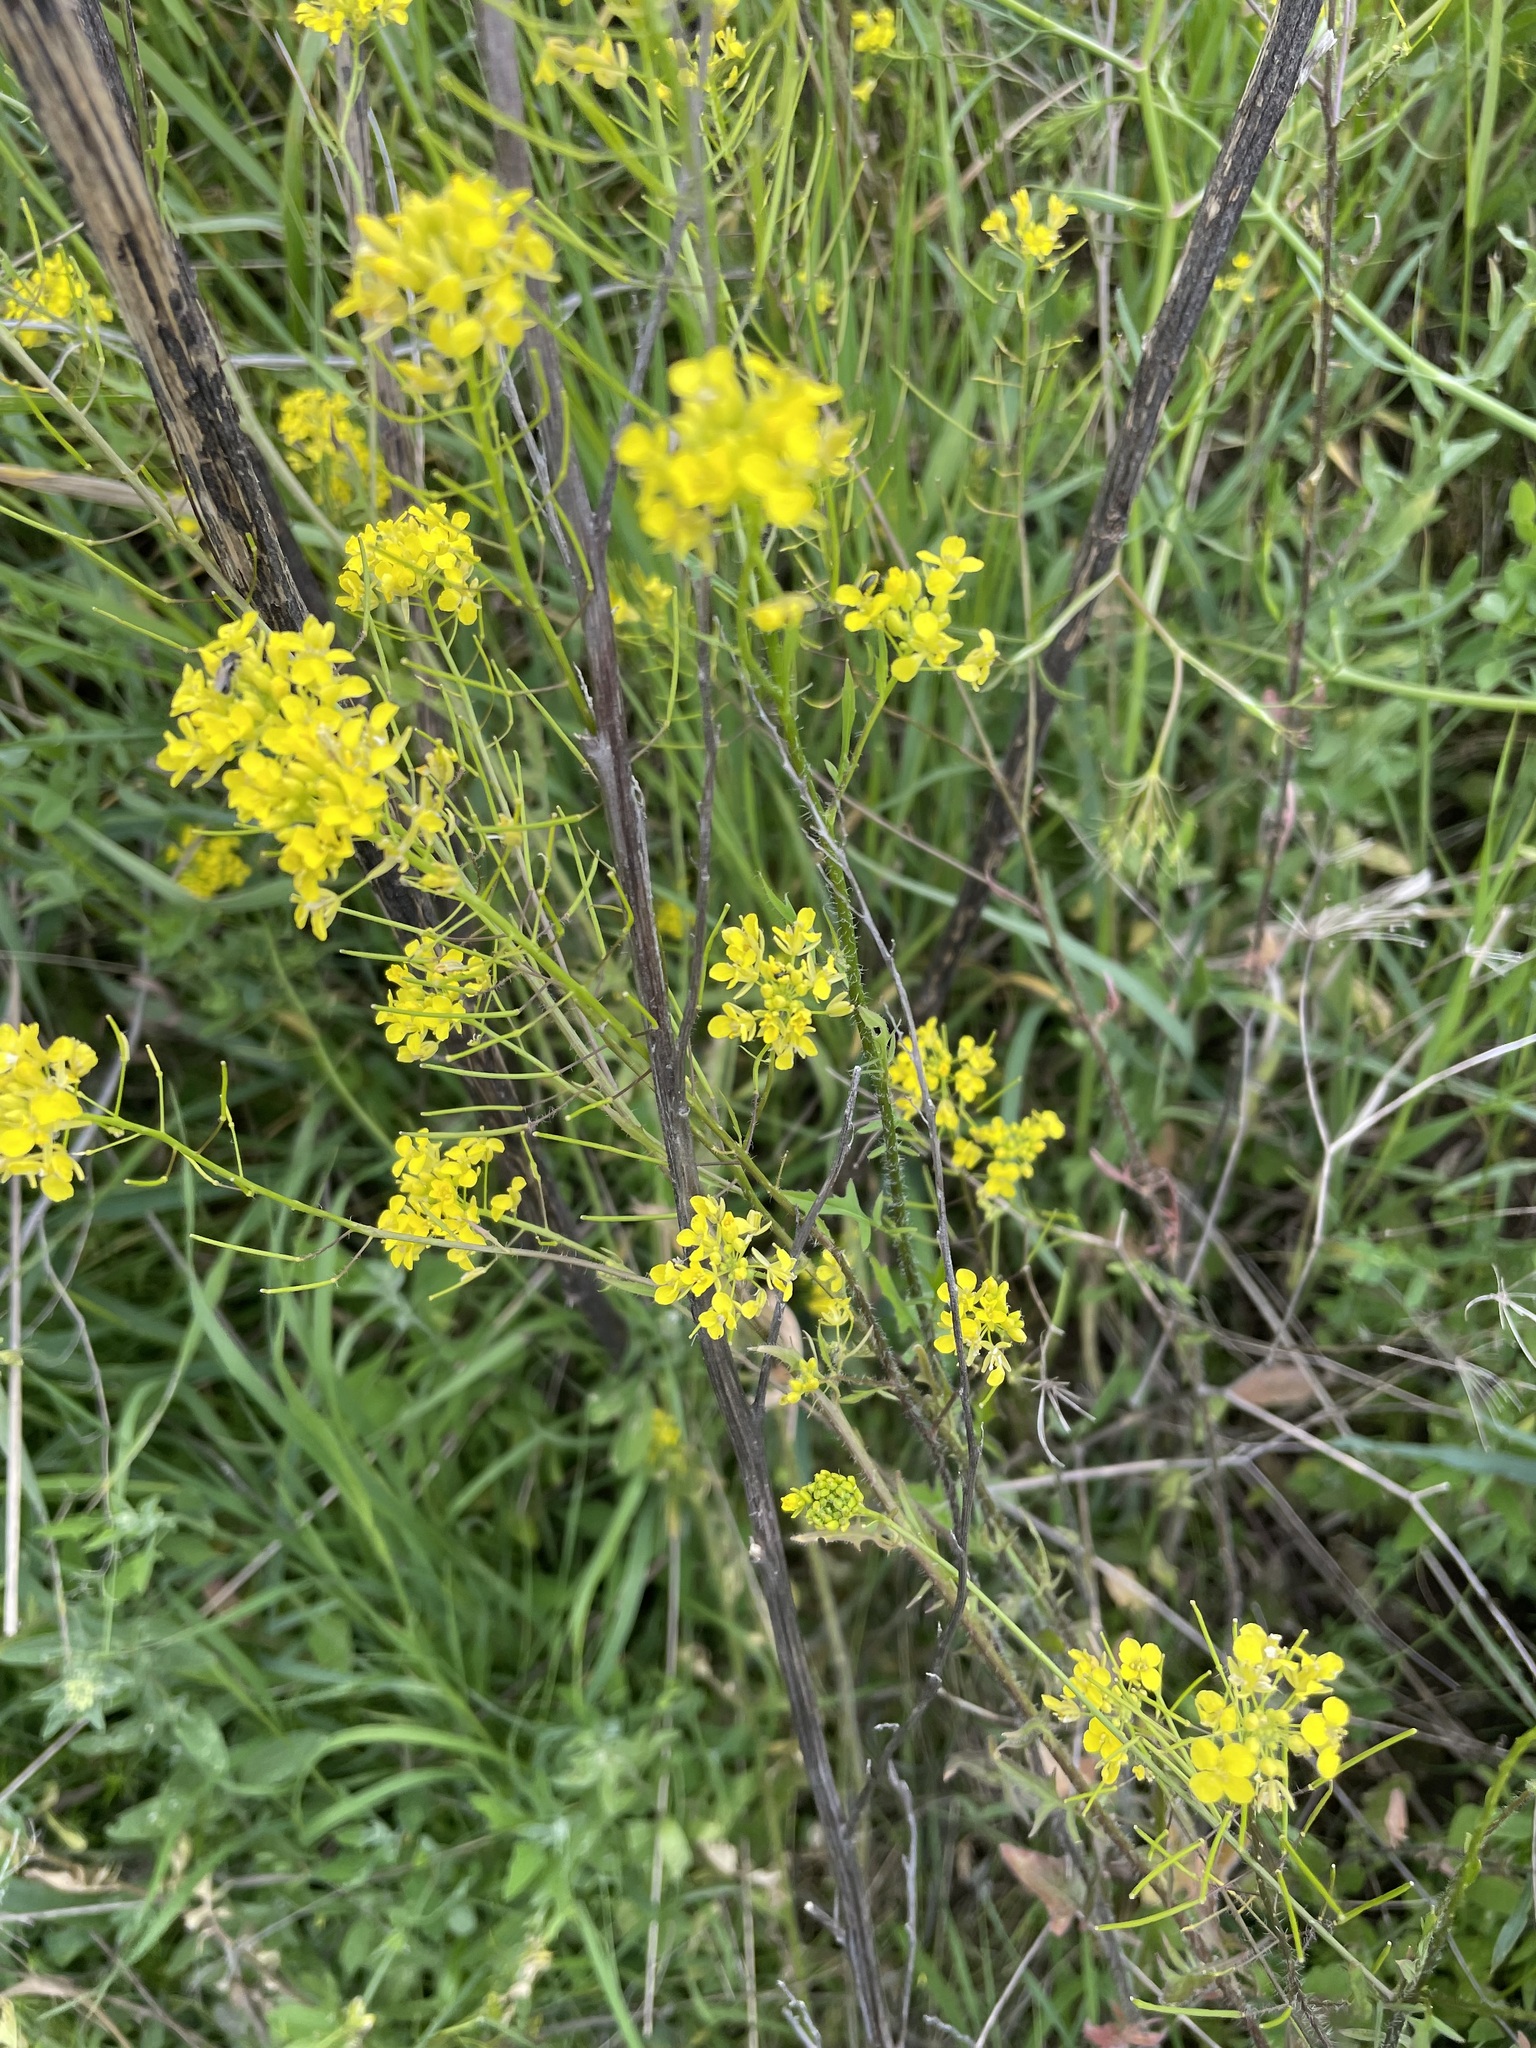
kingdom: Plantae
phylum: Tracheophyta
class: Magnoliopsida
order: Brassicales
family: Brassicaceae
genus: Sisymbrium
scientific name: Sisymbrium loeselii
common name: False london-rocket
